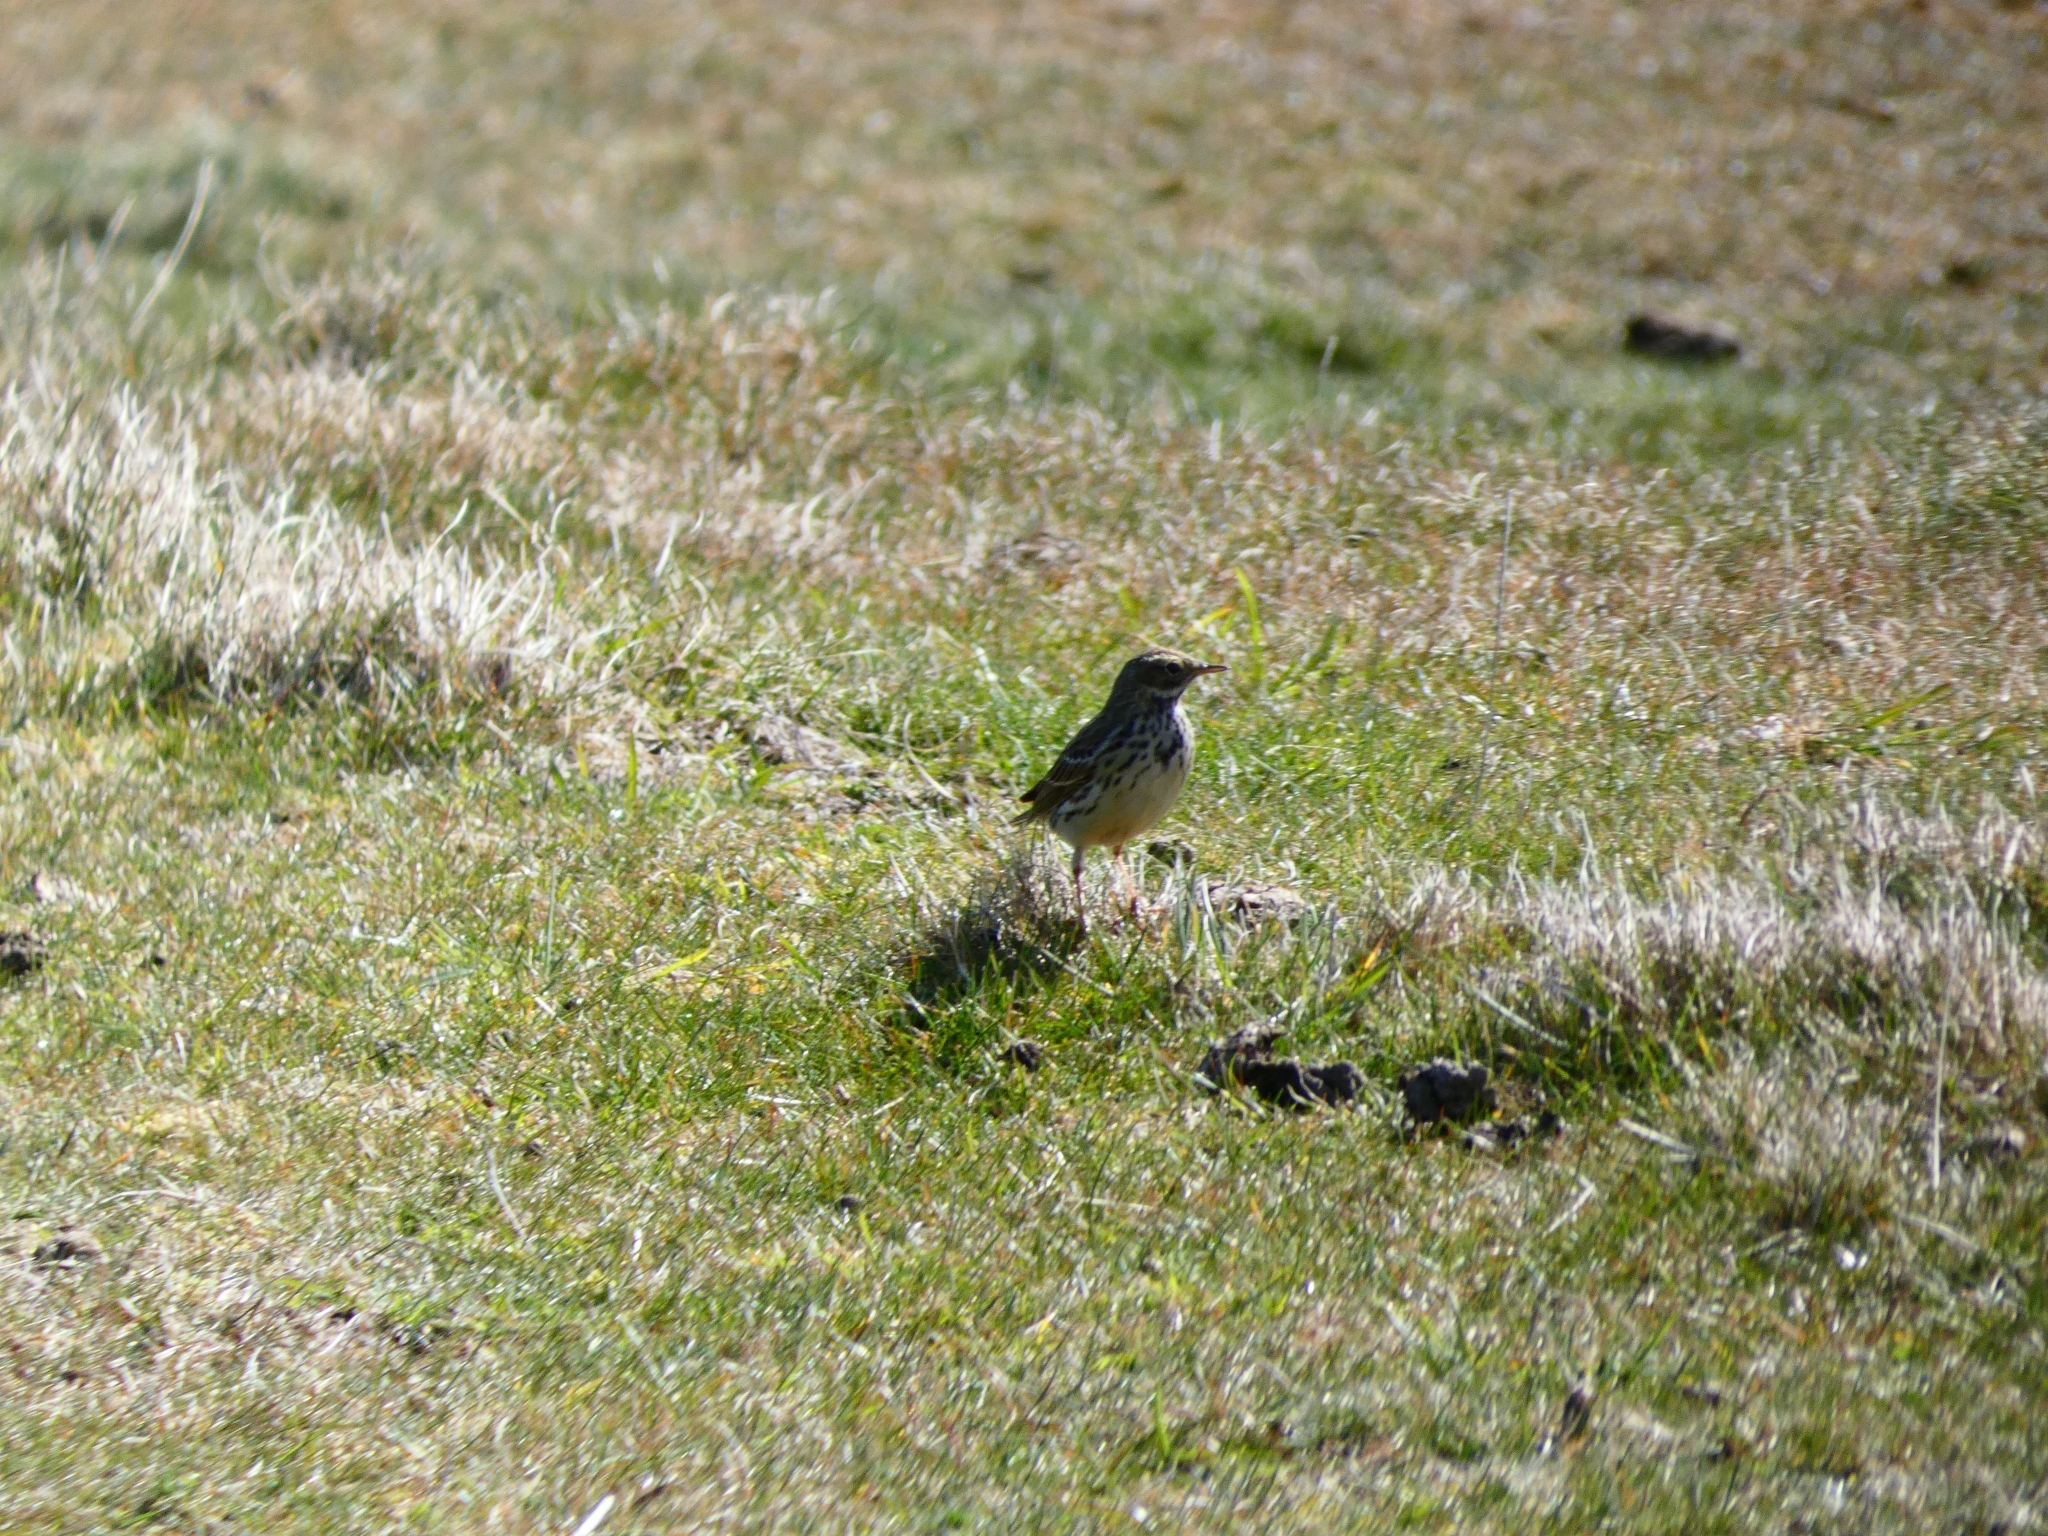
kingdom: Animalia
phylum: Chordata
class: Aves
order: Passeriformes
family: Motacillidae
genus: Anthus
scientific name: Anthus pratensis
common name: Meadow pipit
